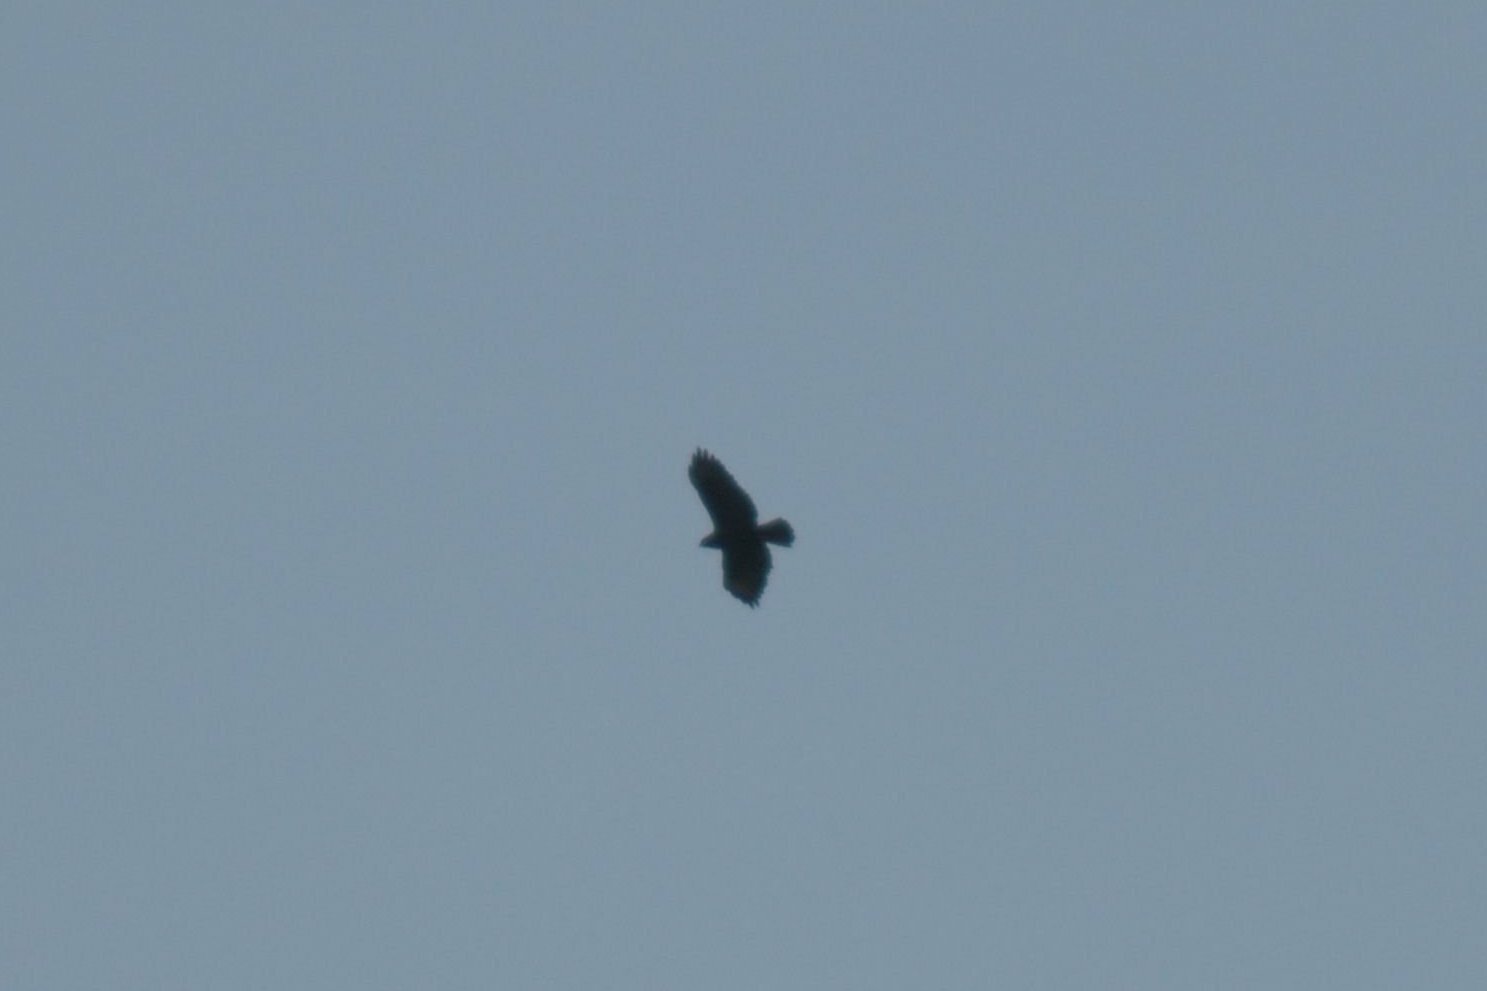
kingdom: Animalia
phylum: Chordata
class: Aves
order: Accipitriformes
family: Accipitridae
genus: Buteo
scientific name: Buteo buteo
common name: Common buzzard
